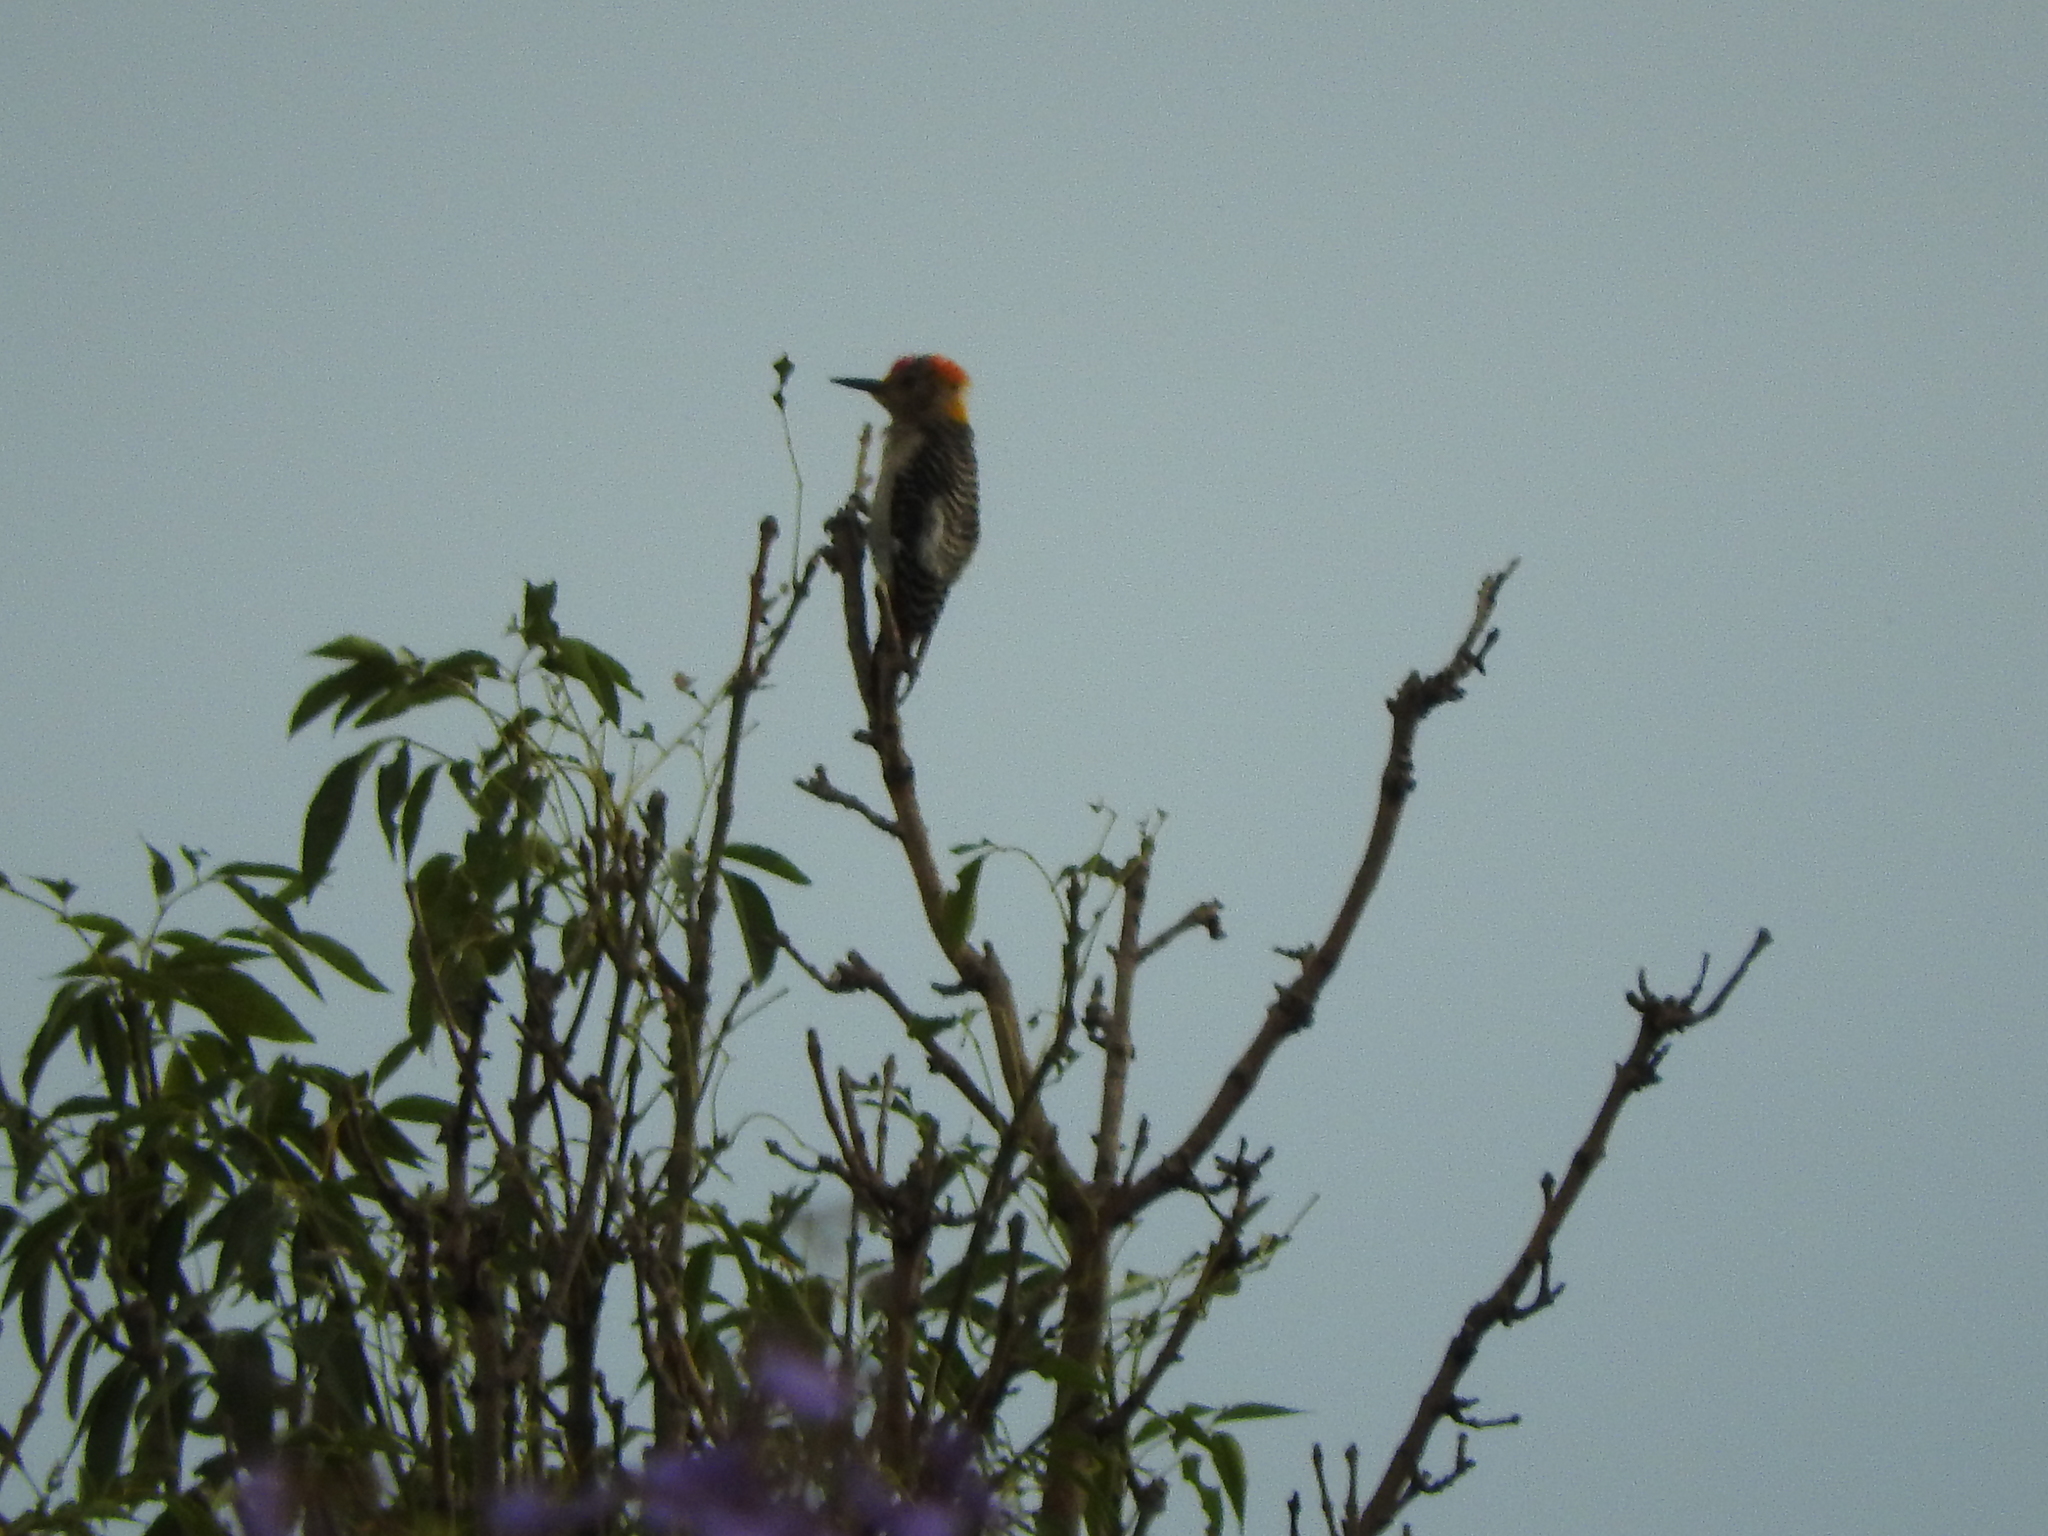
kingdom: Animalia
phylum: Chordata
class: Aves
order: Piciformes
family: Picidae
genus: Melanerpes
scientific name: Melanerpes aurifrons
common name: Golden-fronted woodpecker
